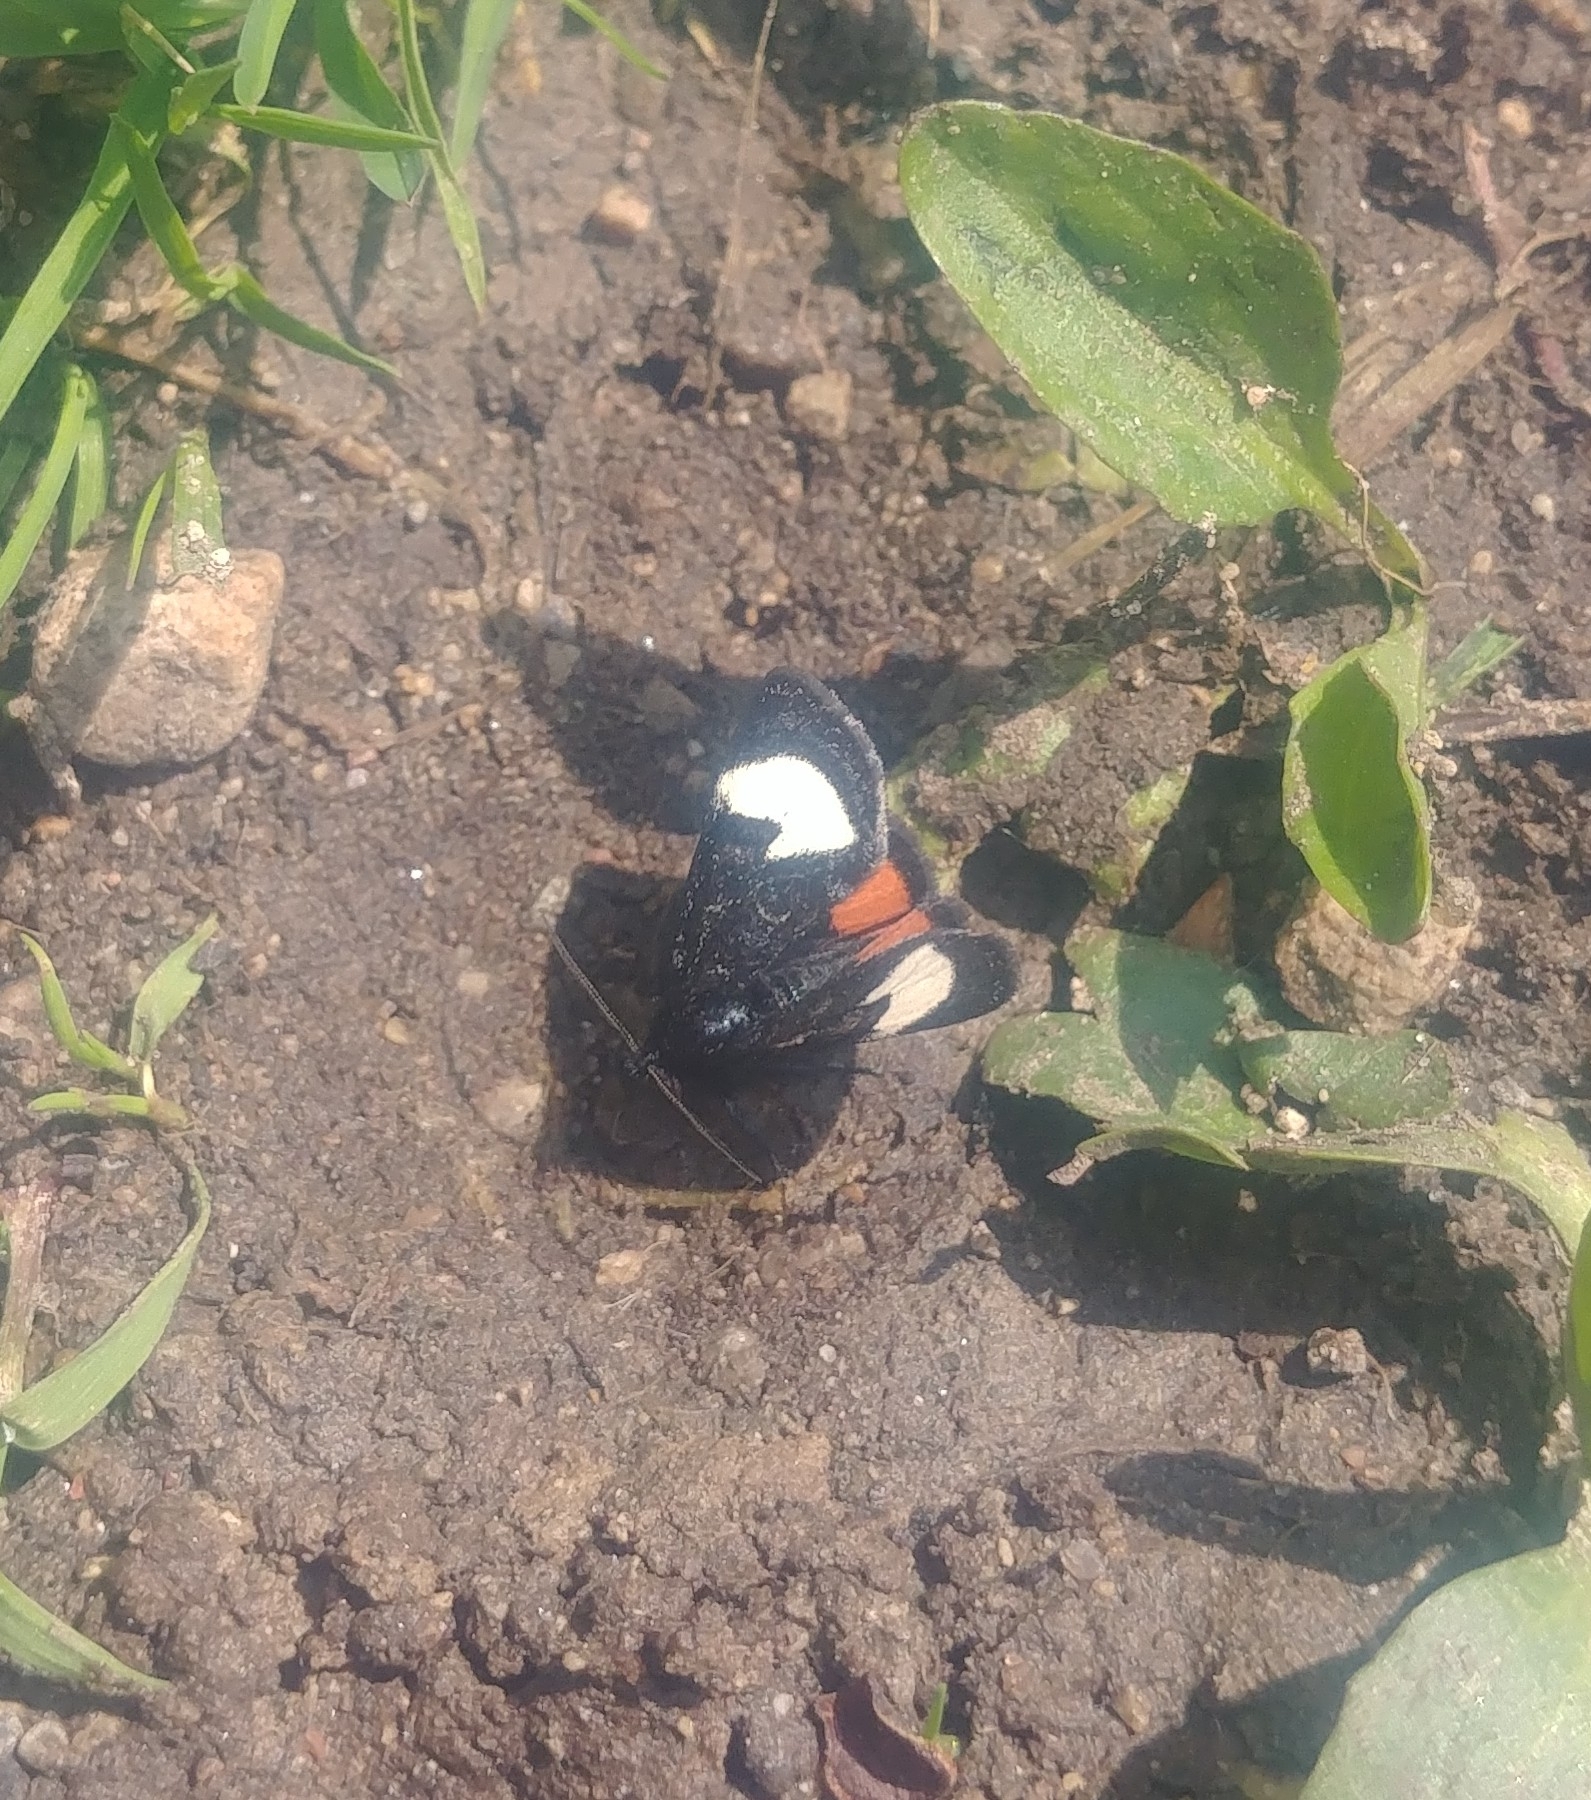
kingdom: Animalia
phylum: Arthropoda
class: Insecta
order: Lepidoptera
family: Noctuidae
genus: Psychomorpha
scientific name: Psychomorpha epimenis
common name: Grapevine epimenis moth
